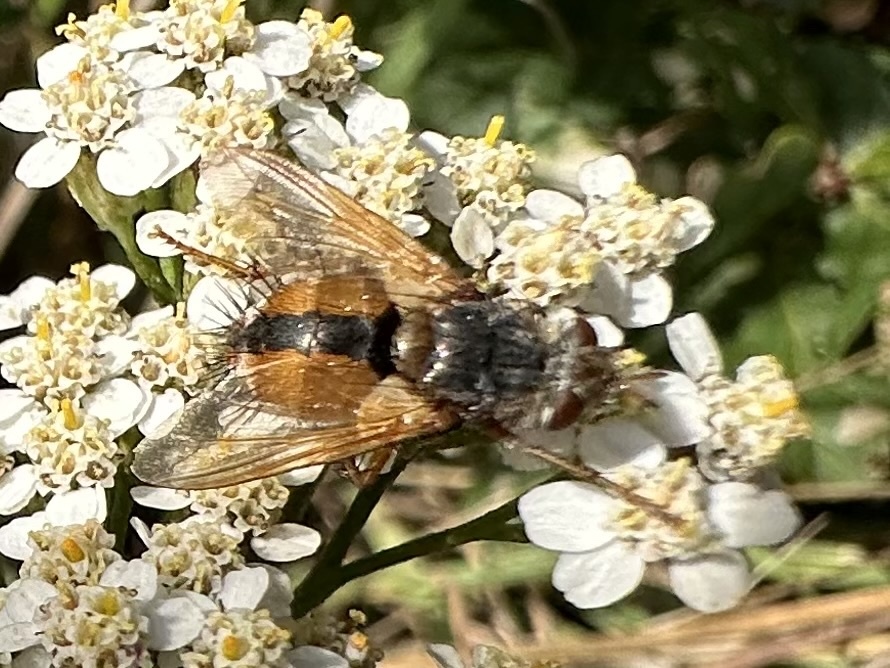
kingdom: Animalia
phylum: Arthropoda
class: Insecta
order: Diptera
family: Tachinidae
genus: Tachina
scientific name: Tachina fera
